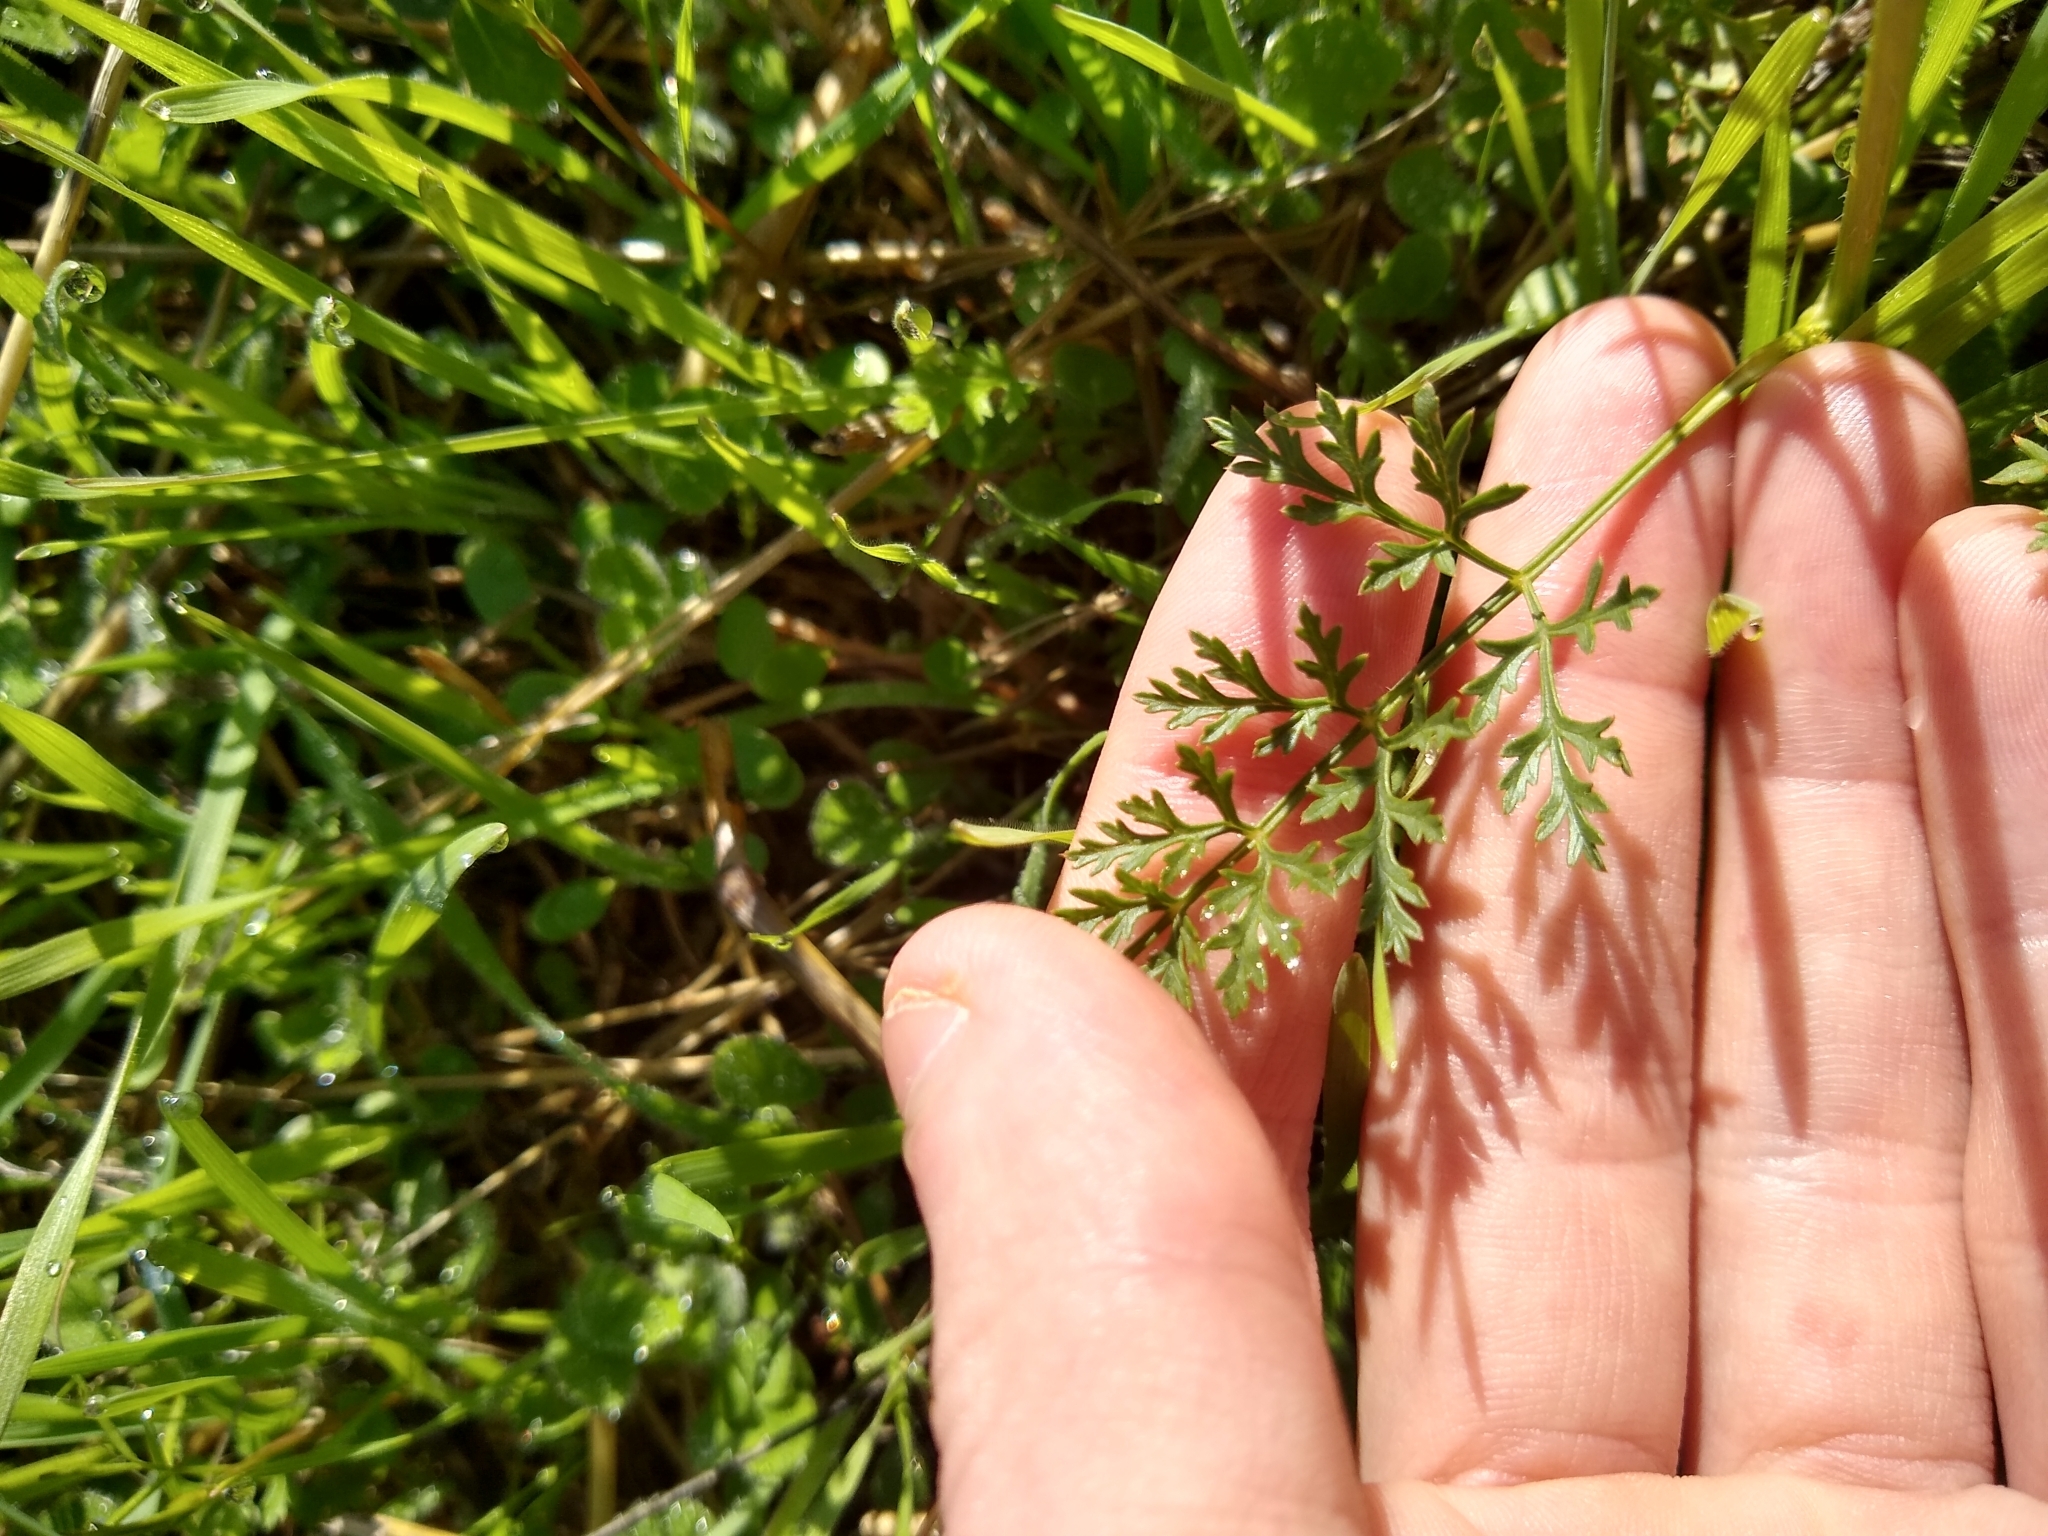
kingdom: Plantae
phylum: Tracheophyta
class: Magnoliopsida
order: Apiales
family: Apiaceae
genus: Daucus
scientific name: Daucus carota
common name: Wild carrot
